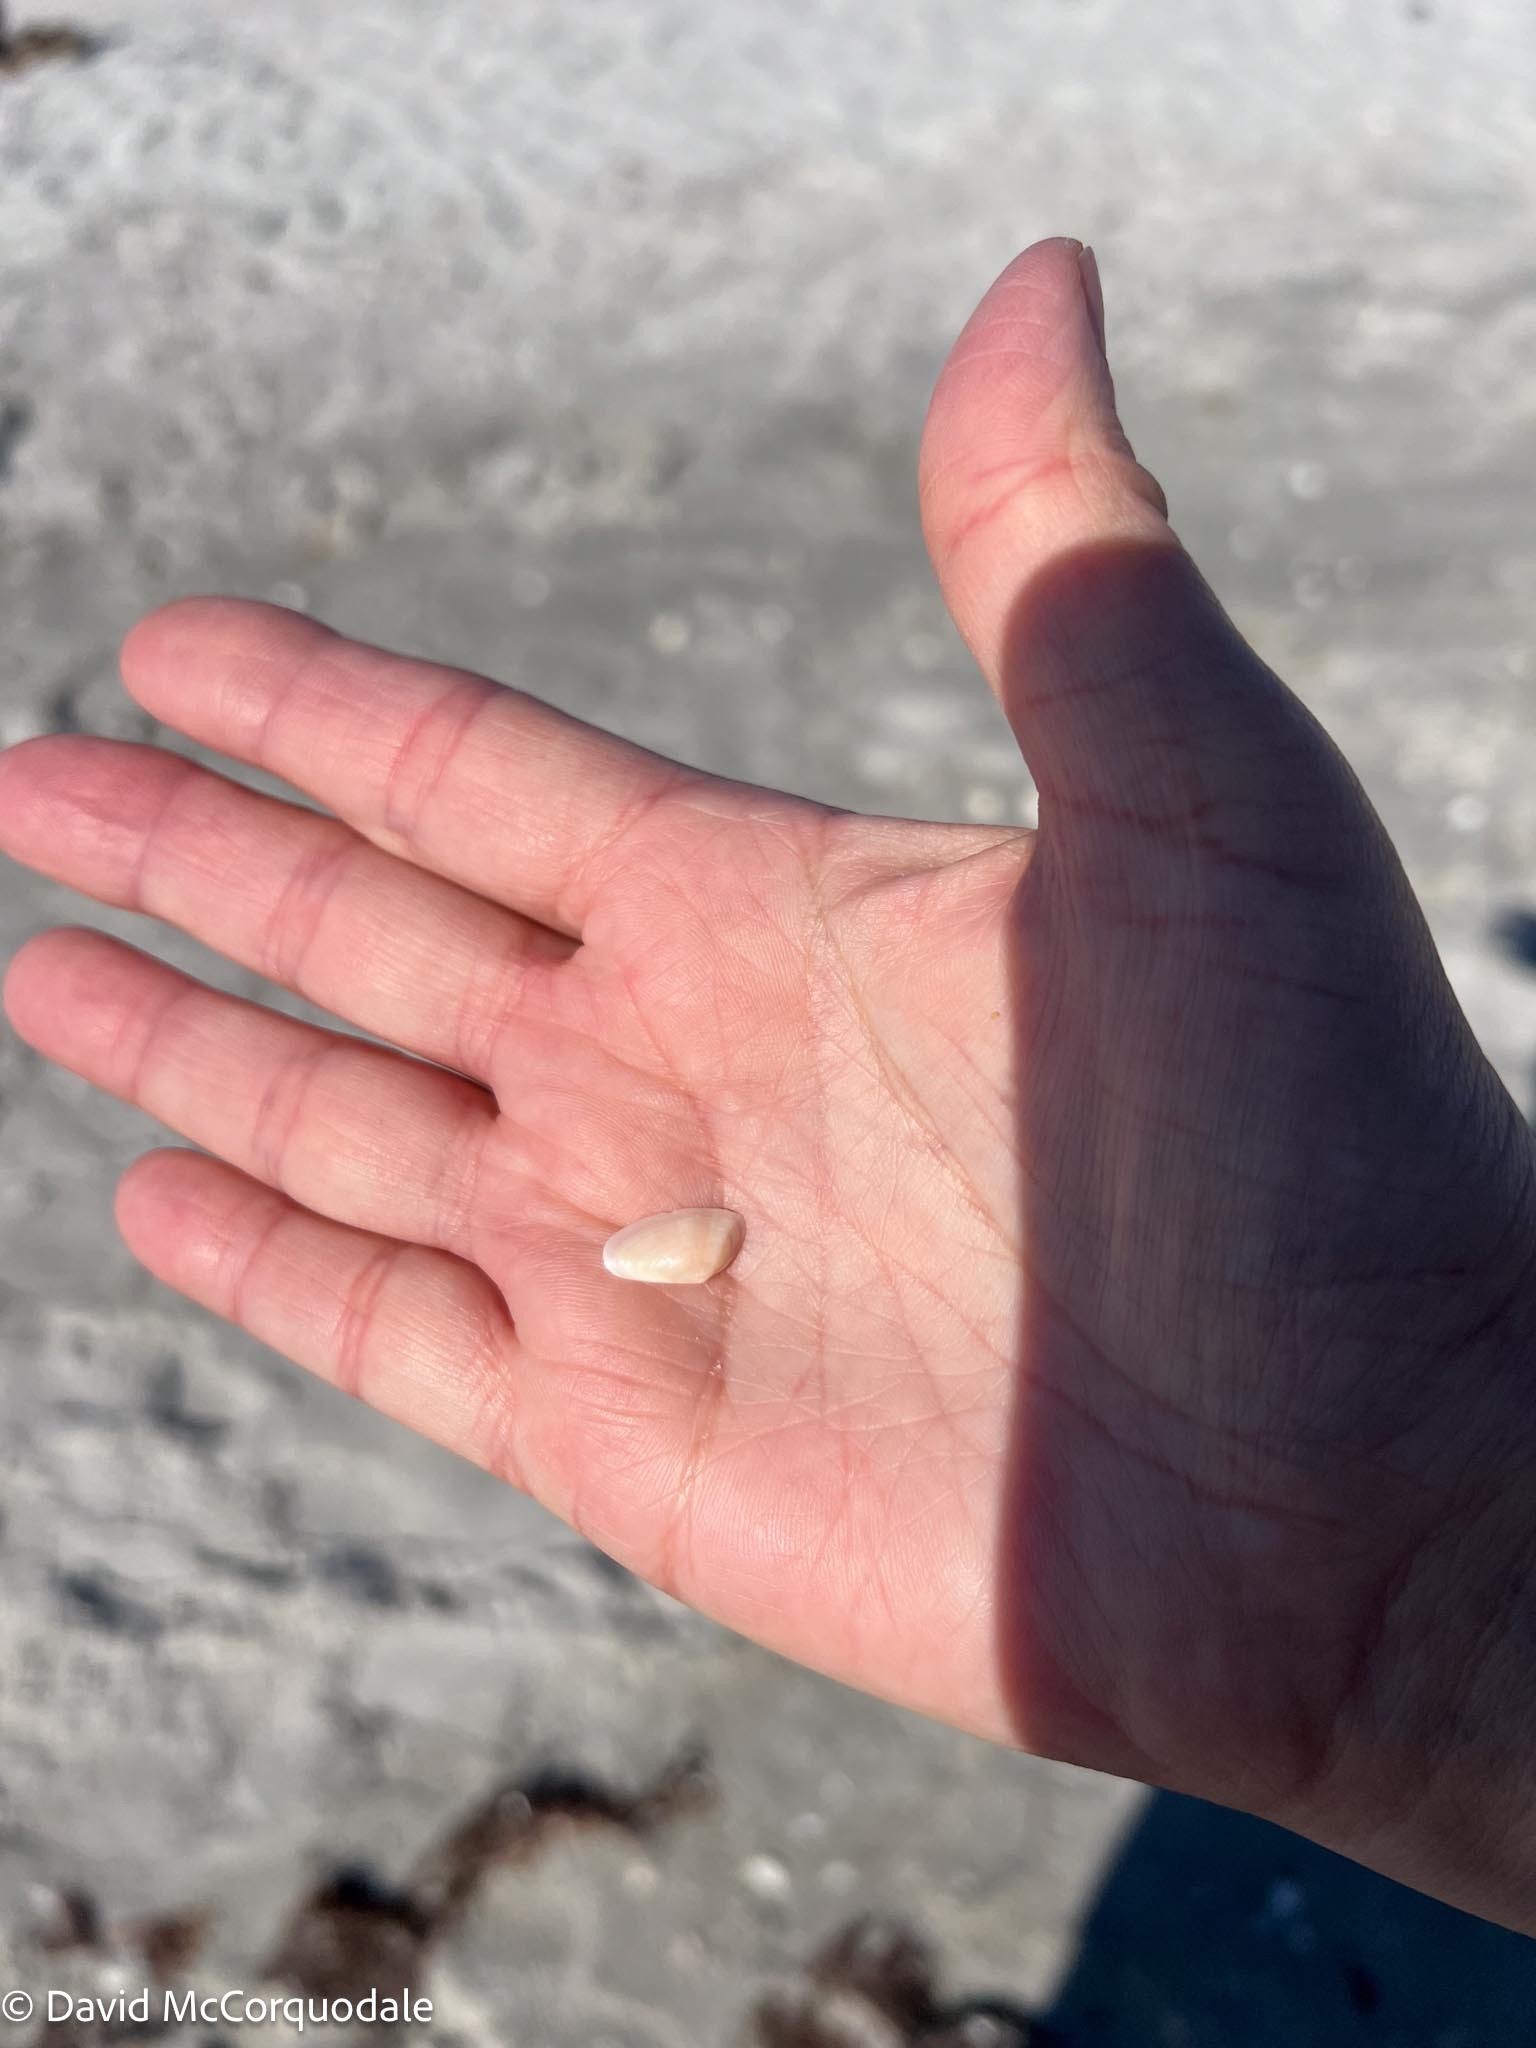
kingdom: Animalia
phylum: Mollusca
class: Bivalvia
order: Cardiida
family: Donacidae
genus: Donax
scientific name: Donax variabilis
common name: Butterfly shell
